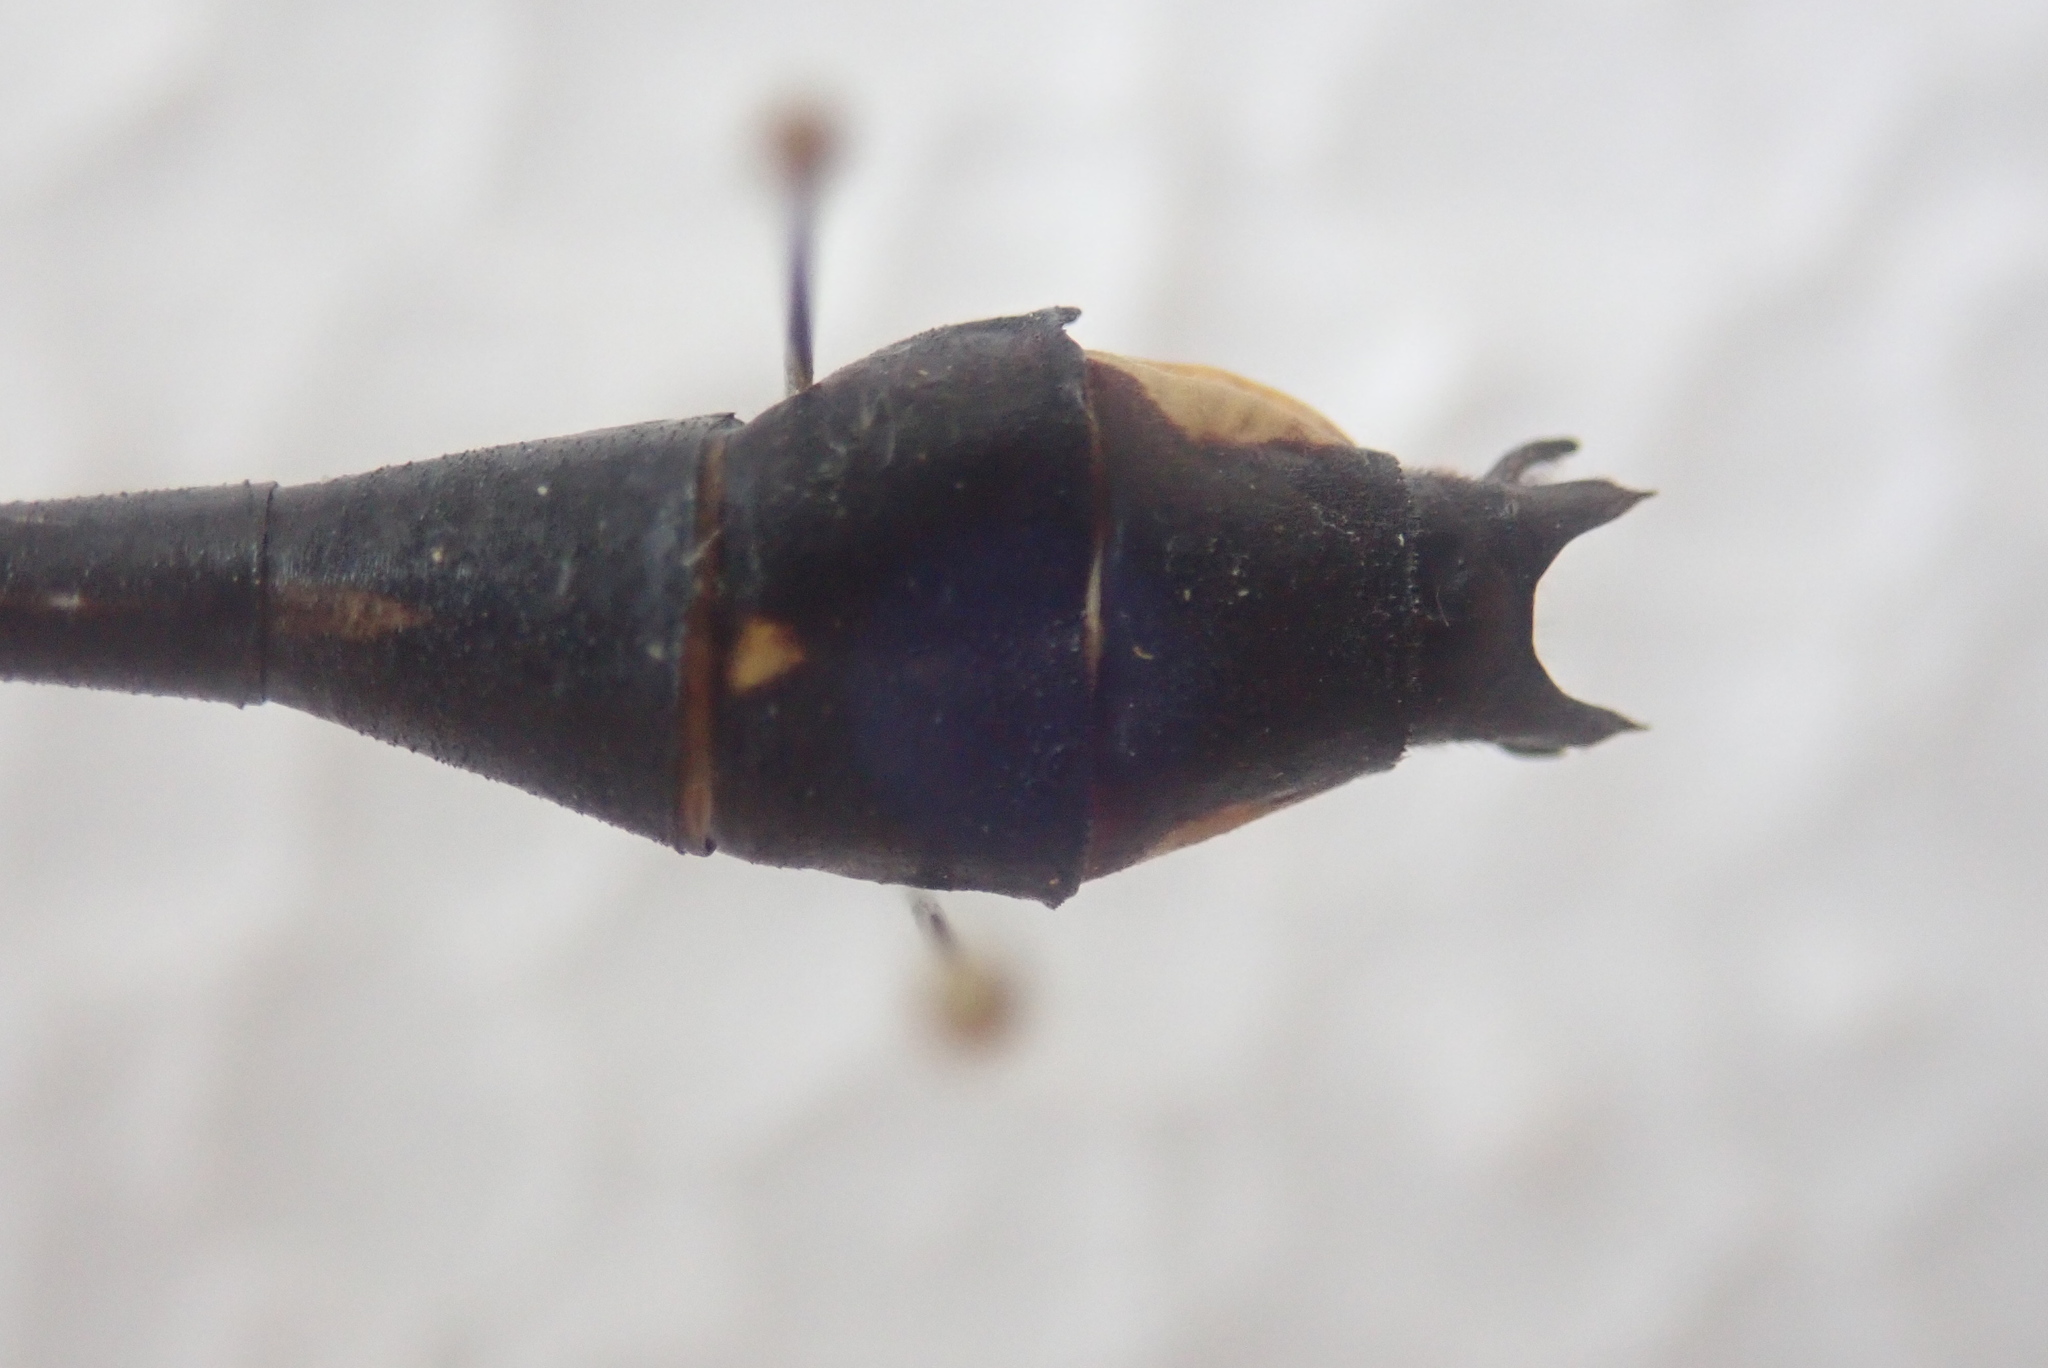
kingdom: Animalia
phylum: Arthropoda
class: Insecta
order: Odonata
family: Gomphidae
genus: Gomphurus
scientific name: Gomphurus fraternus
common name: Midland clubtail
